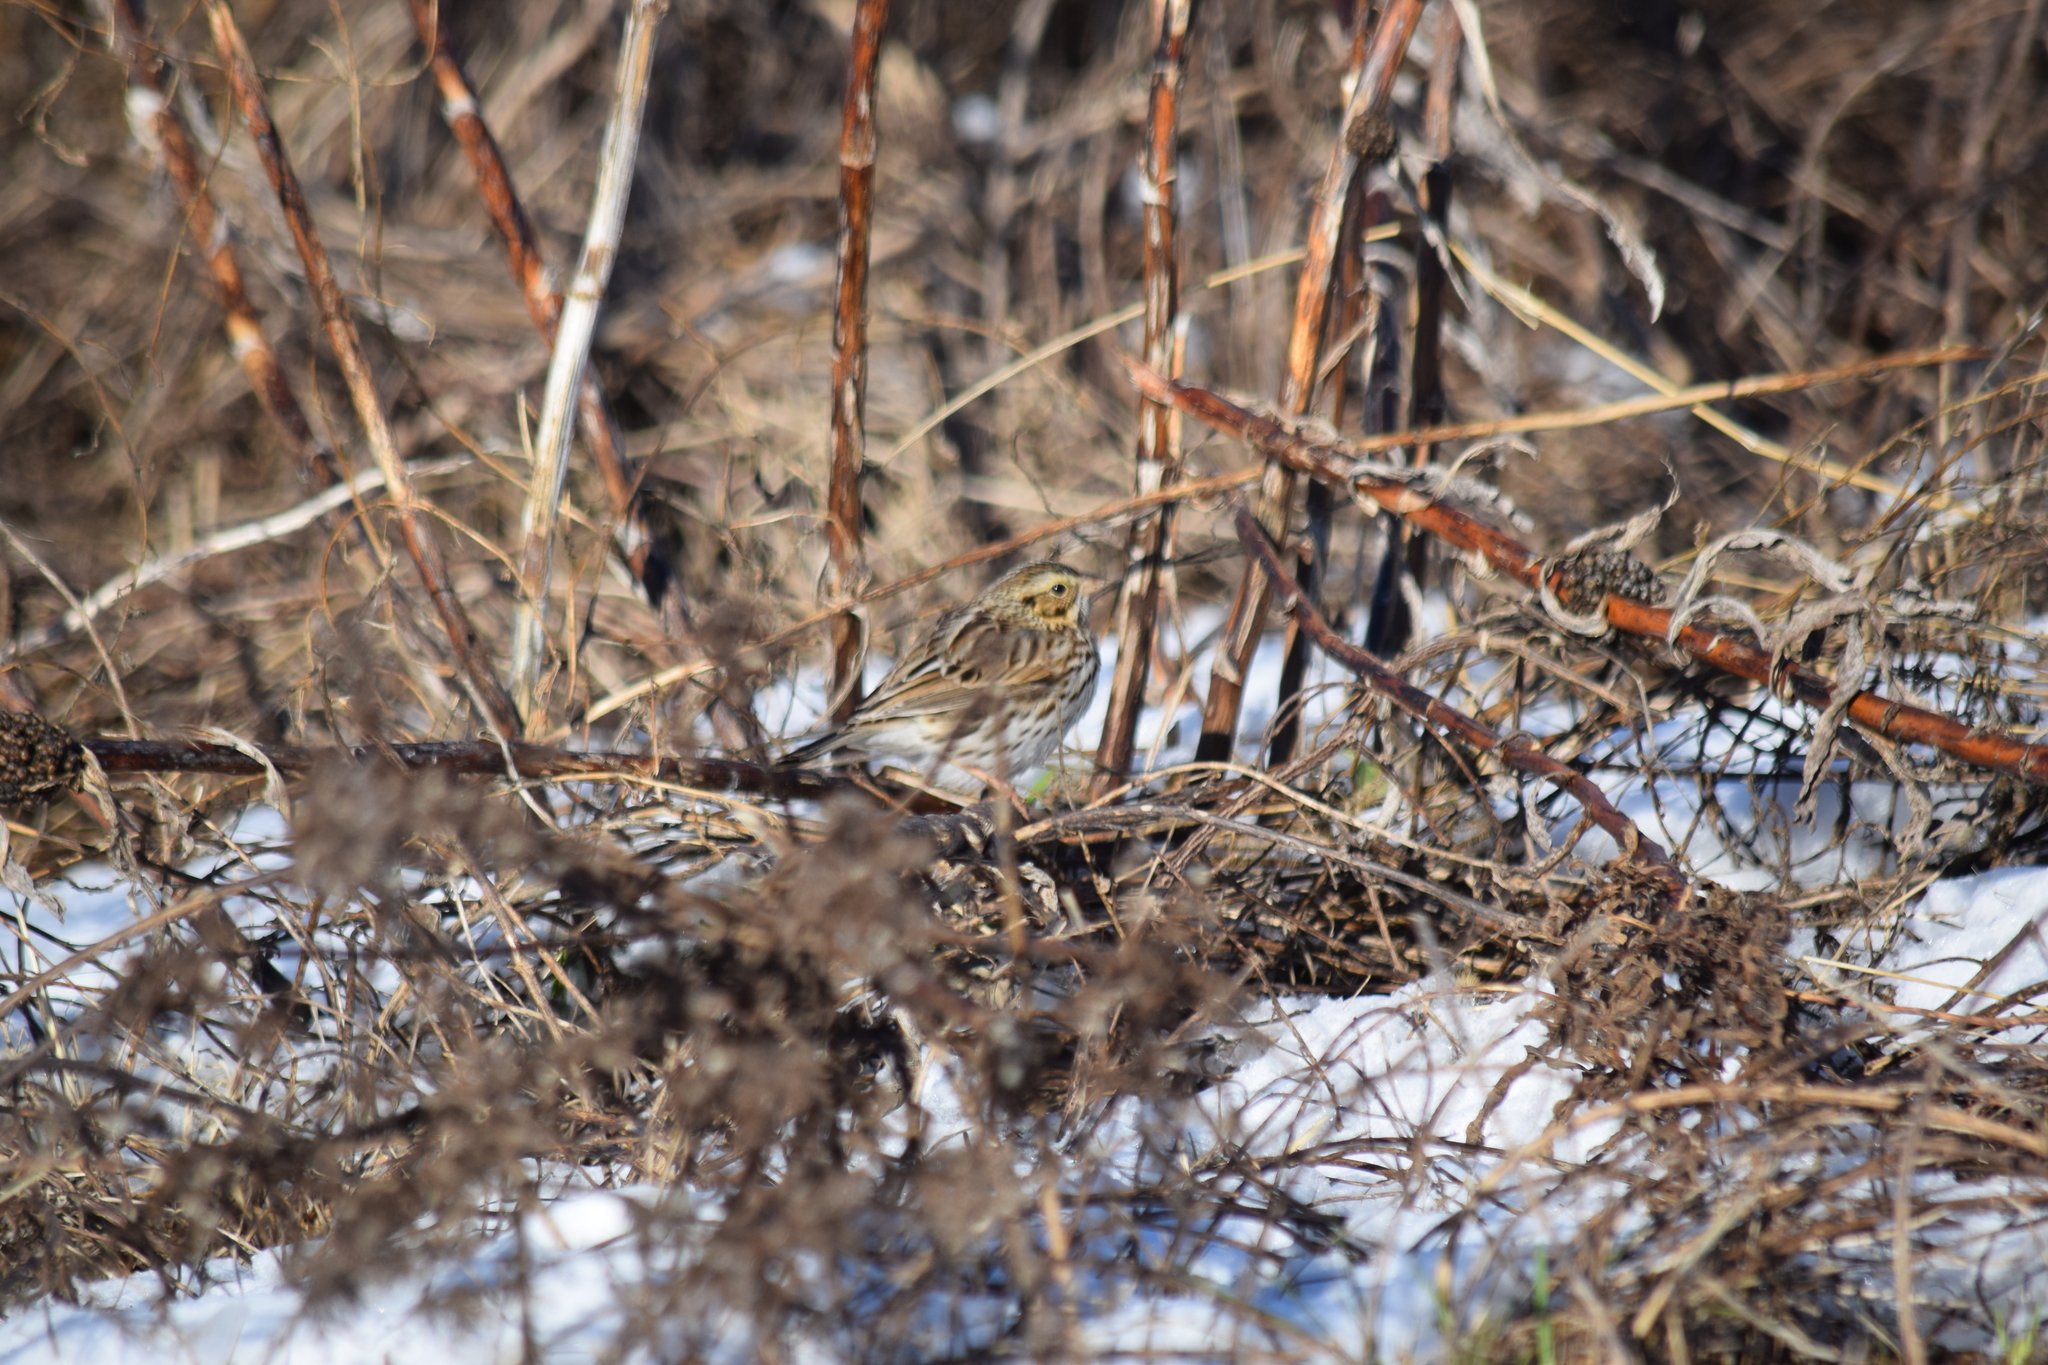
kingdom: Animalia
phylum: Chordata
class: Aves
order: Passeriformes
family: Passerellidae
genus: Passerculus
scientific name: Passerculus sandwichensis
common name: Savannah sparrow
